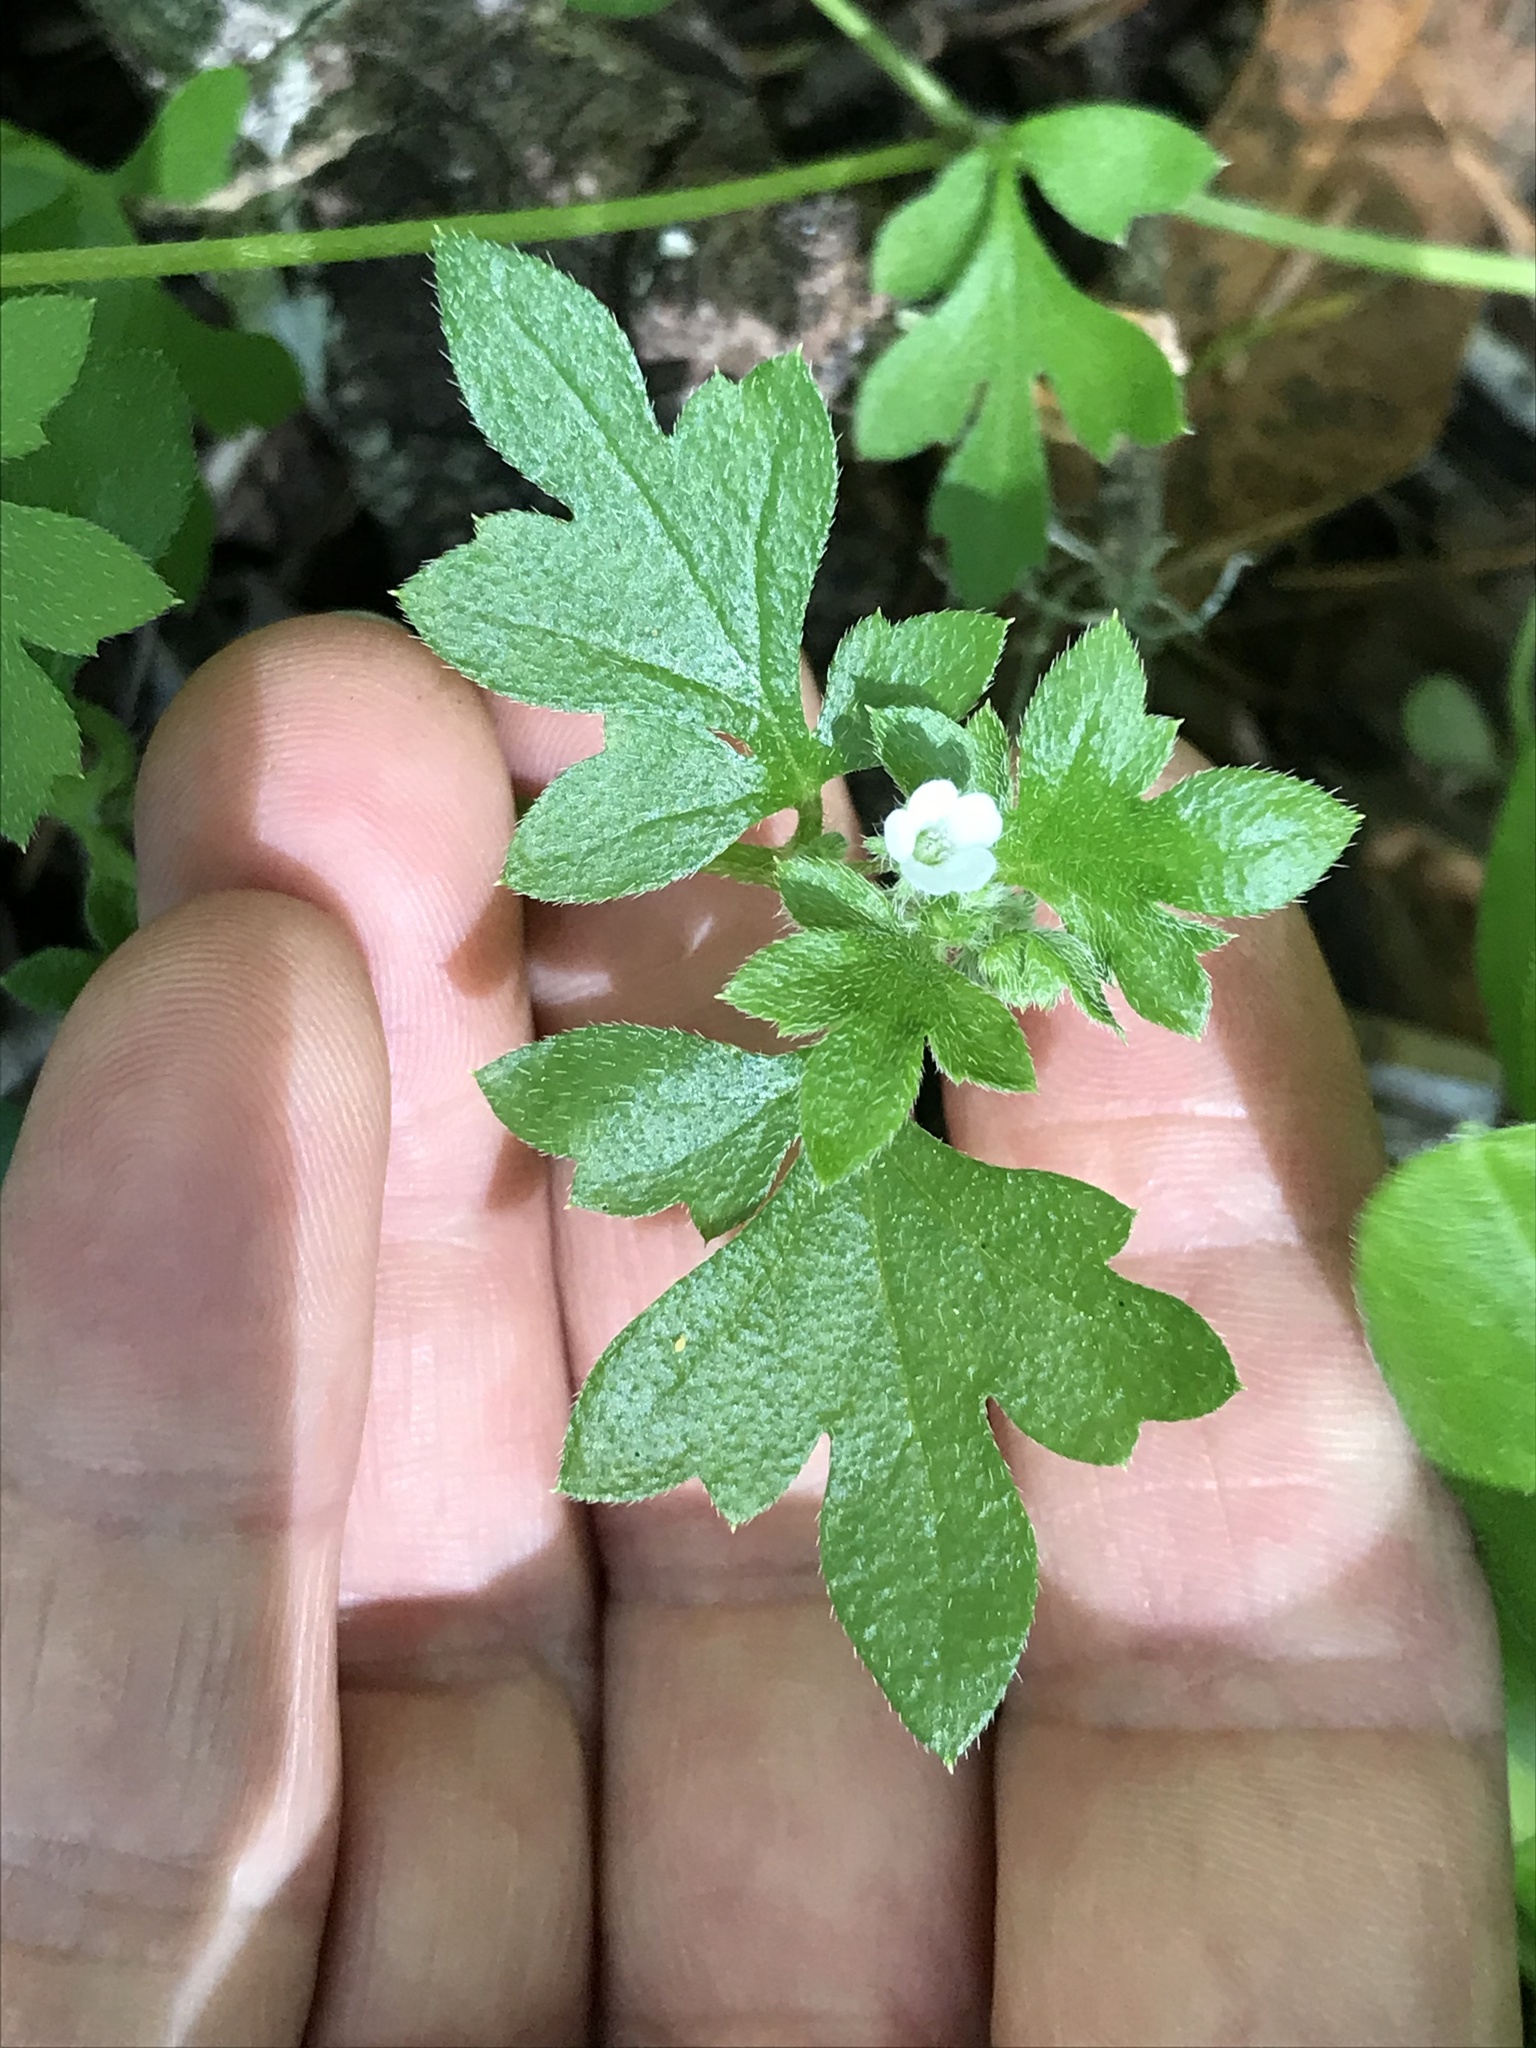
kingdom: Plantae
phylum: Tracheophyta
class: Magnoliopsida
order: Boraginales
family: Hydrophyllaceae
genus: Nemophila
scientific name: Nemophila parviflora
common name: Small-flowered baby-blue-eyes
